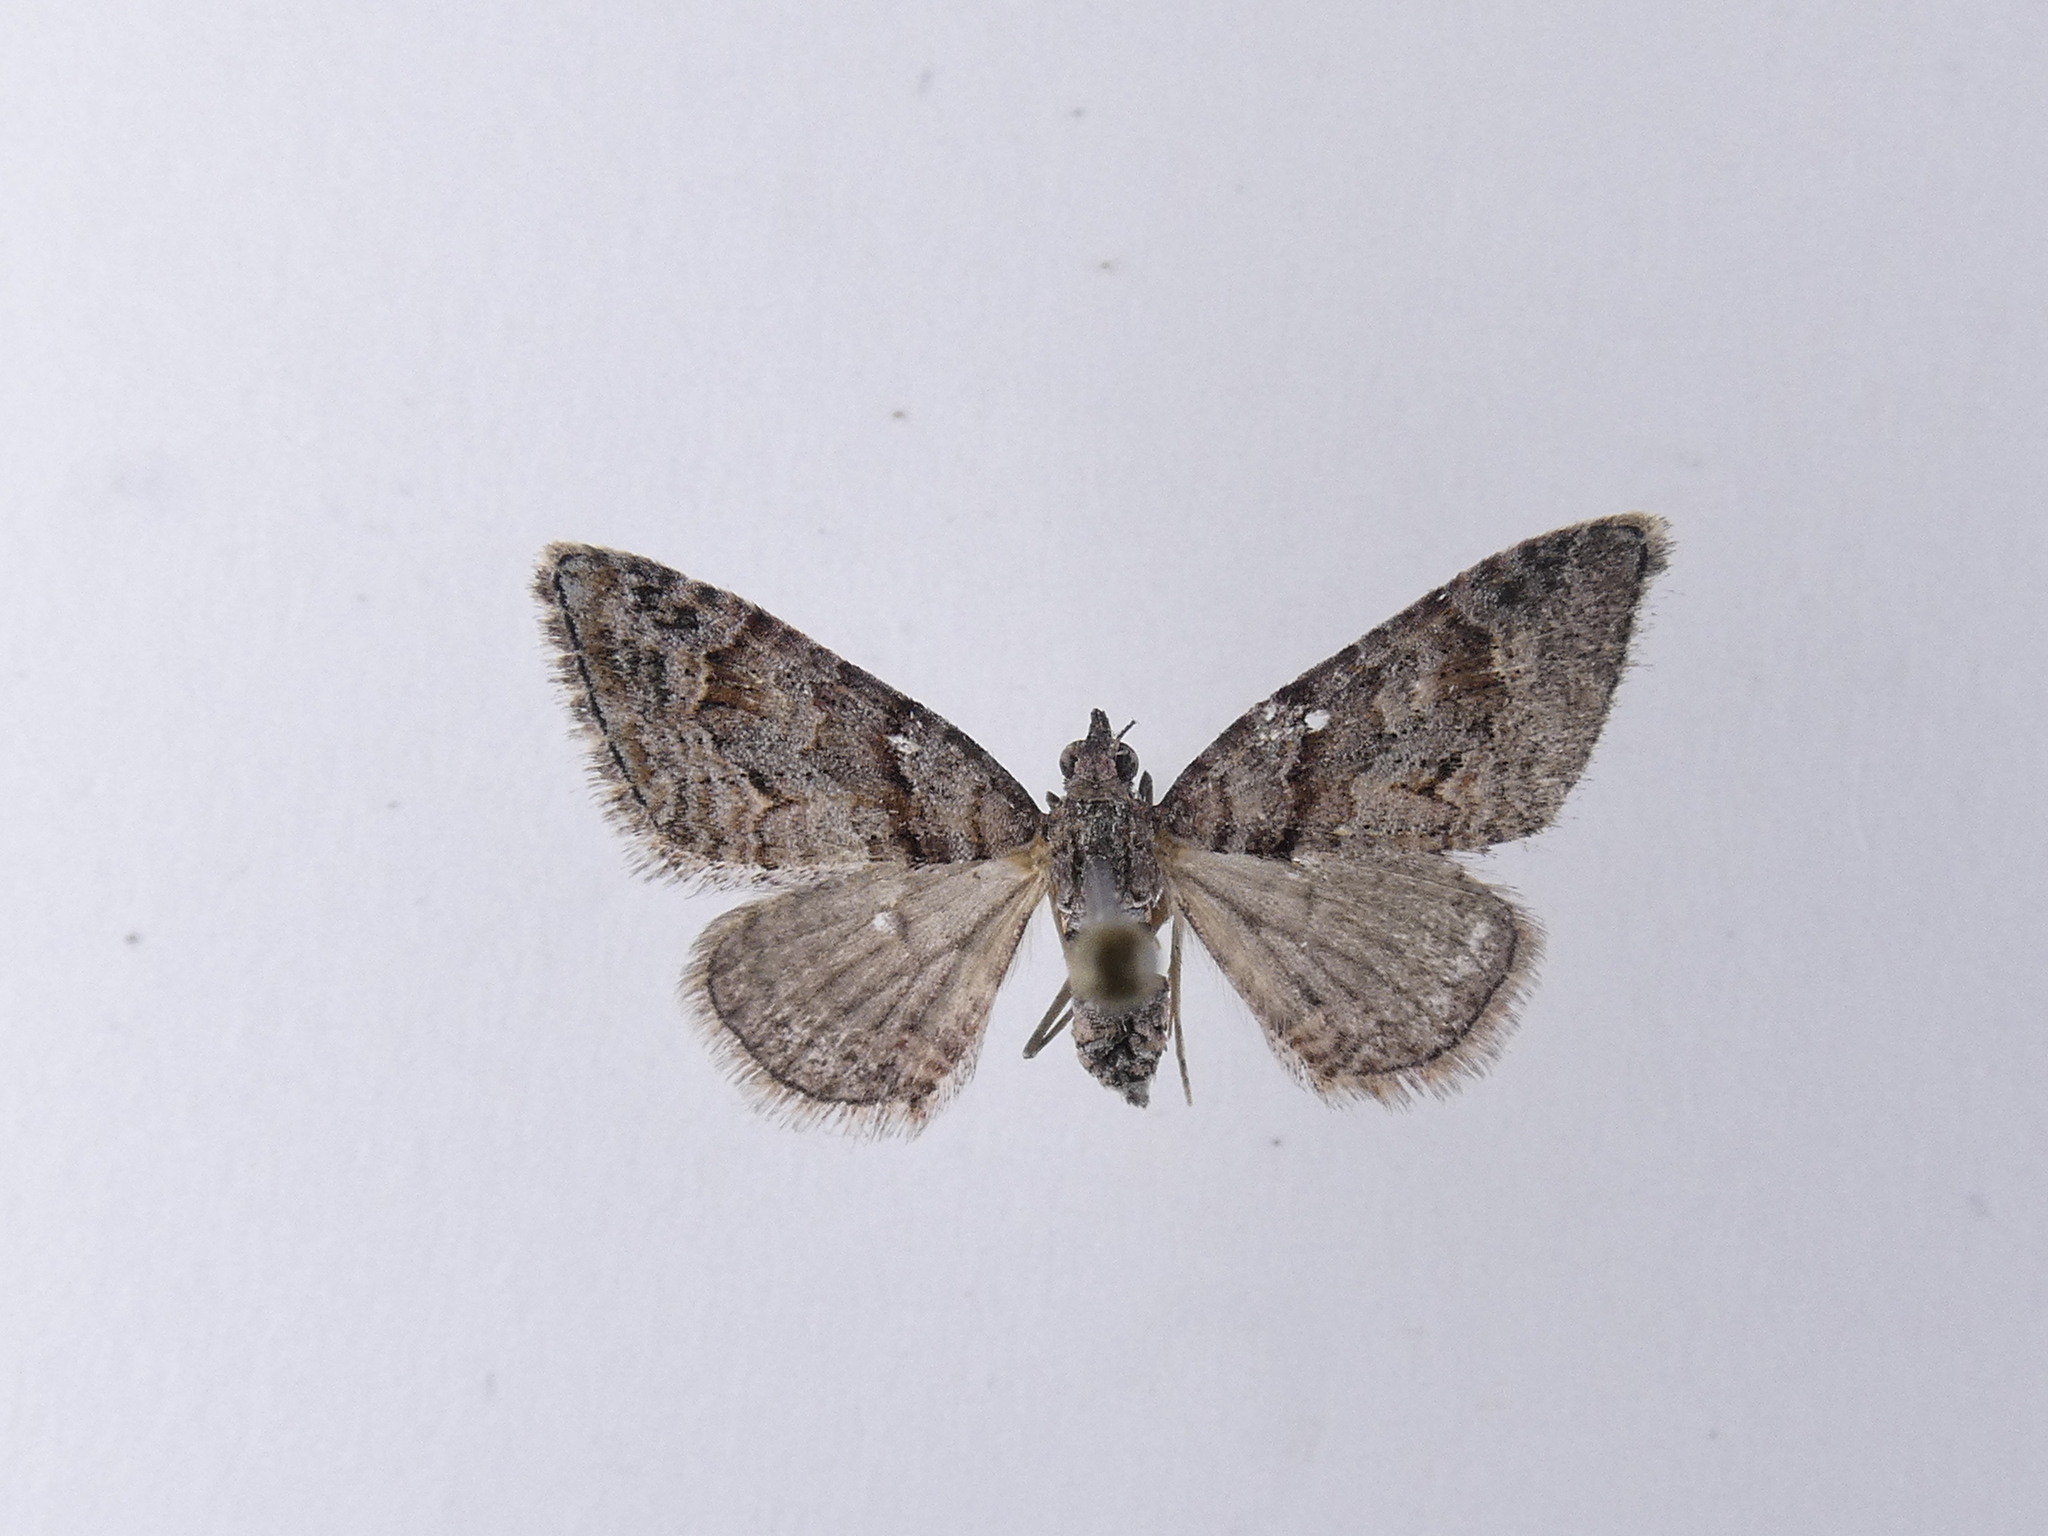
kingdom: Animalia
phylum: Arthropoda
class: Insecta
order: Lepidoptera
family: Geometridae
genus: Phrissogonus
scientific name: Phrissogonus laticostata
